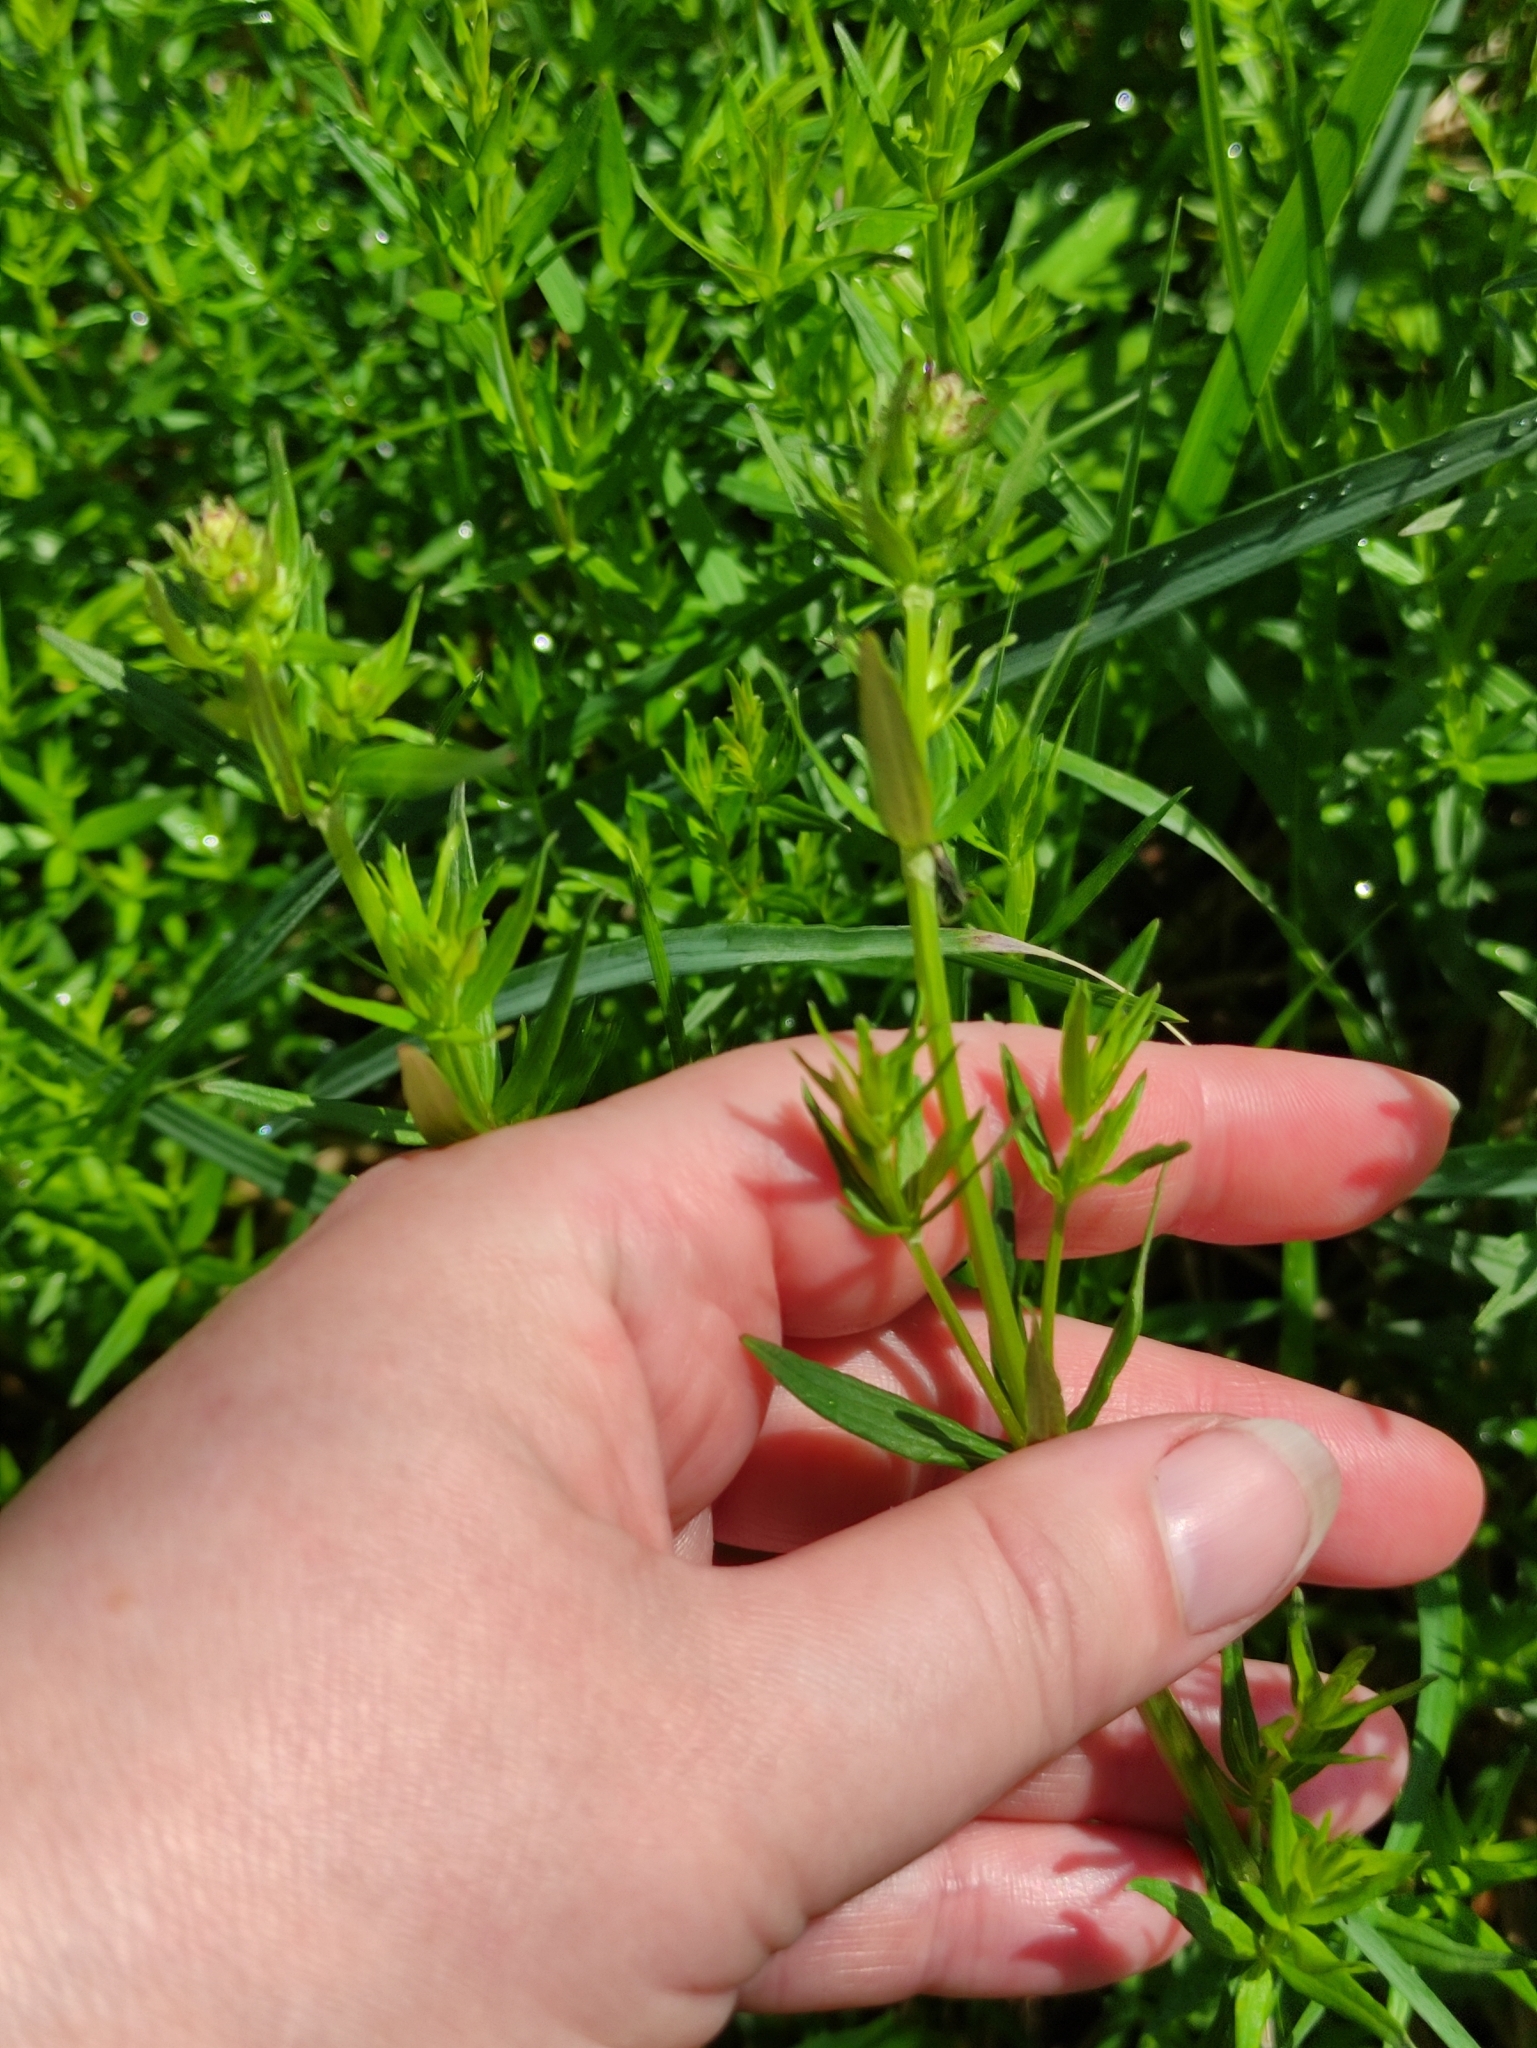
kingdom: Plantae
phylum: Tracheophyta
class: Magnoliopsida
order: Gentianales
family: Rubiaceae
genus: Galium
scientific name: Galium boreale
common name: Northern bedstraw
